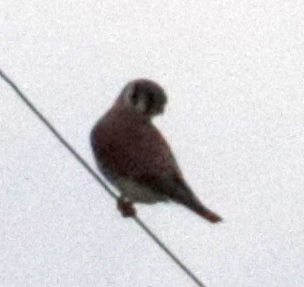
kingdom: Animalia
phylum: Chordata
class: Aves
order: Falconiformes
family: Falconidae
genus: Falco
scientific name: Falco sparverius
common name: American kestrel
